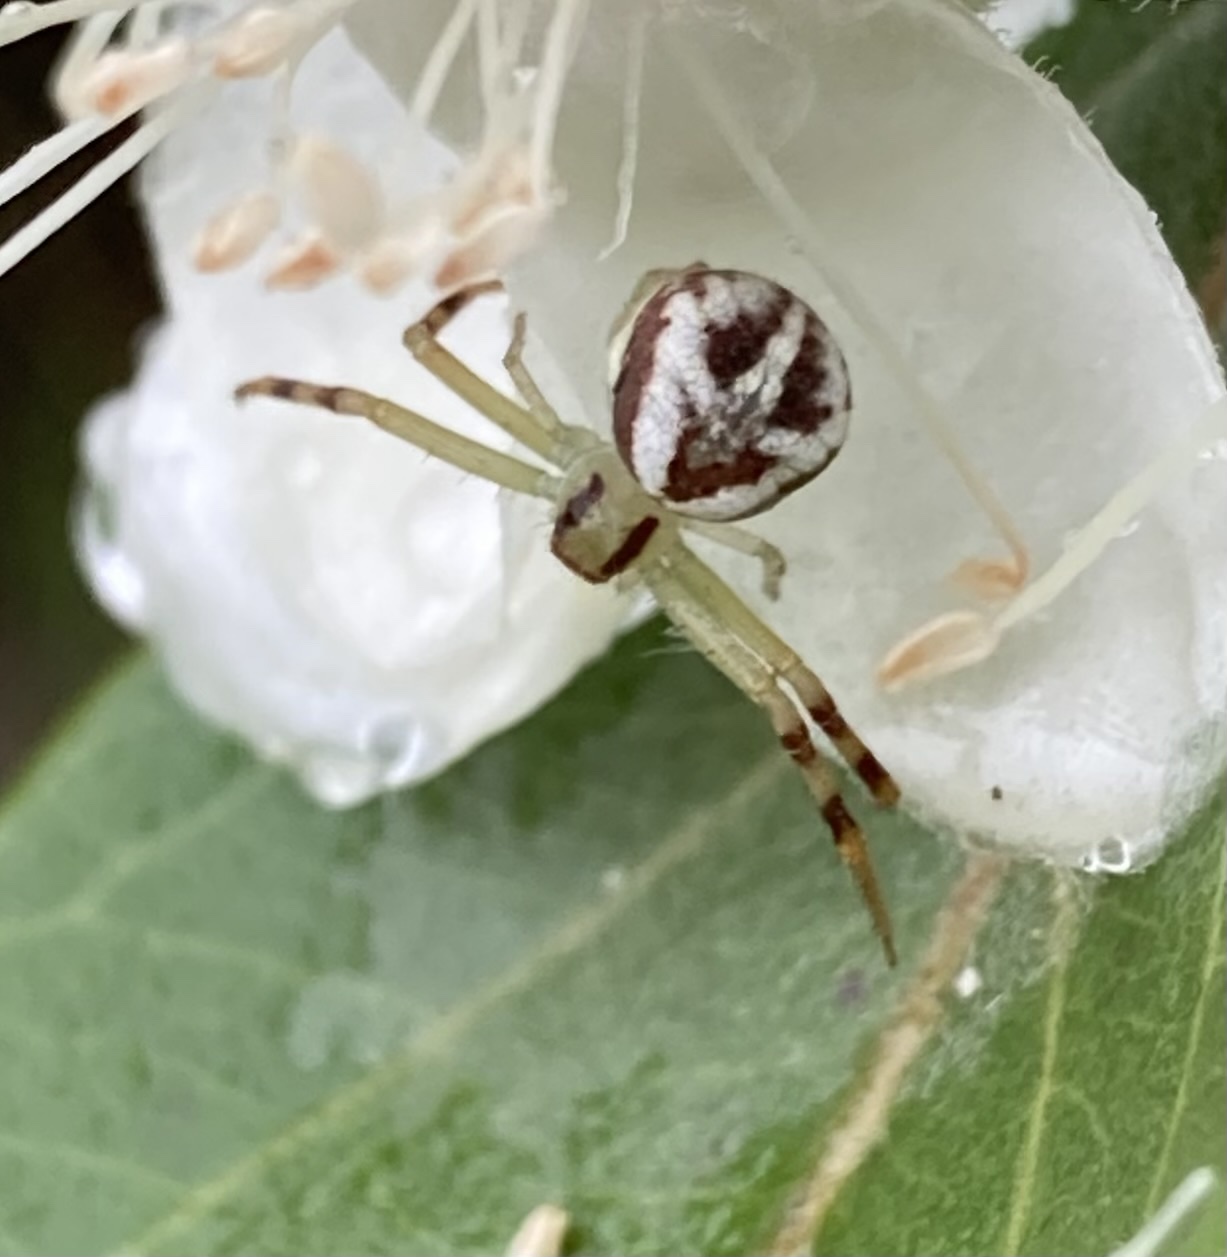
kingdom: Animalia
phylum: Arthropoda
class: Arachnida
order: Araneae
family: Thomisidae
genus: Misumenops
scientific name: Misumenops
